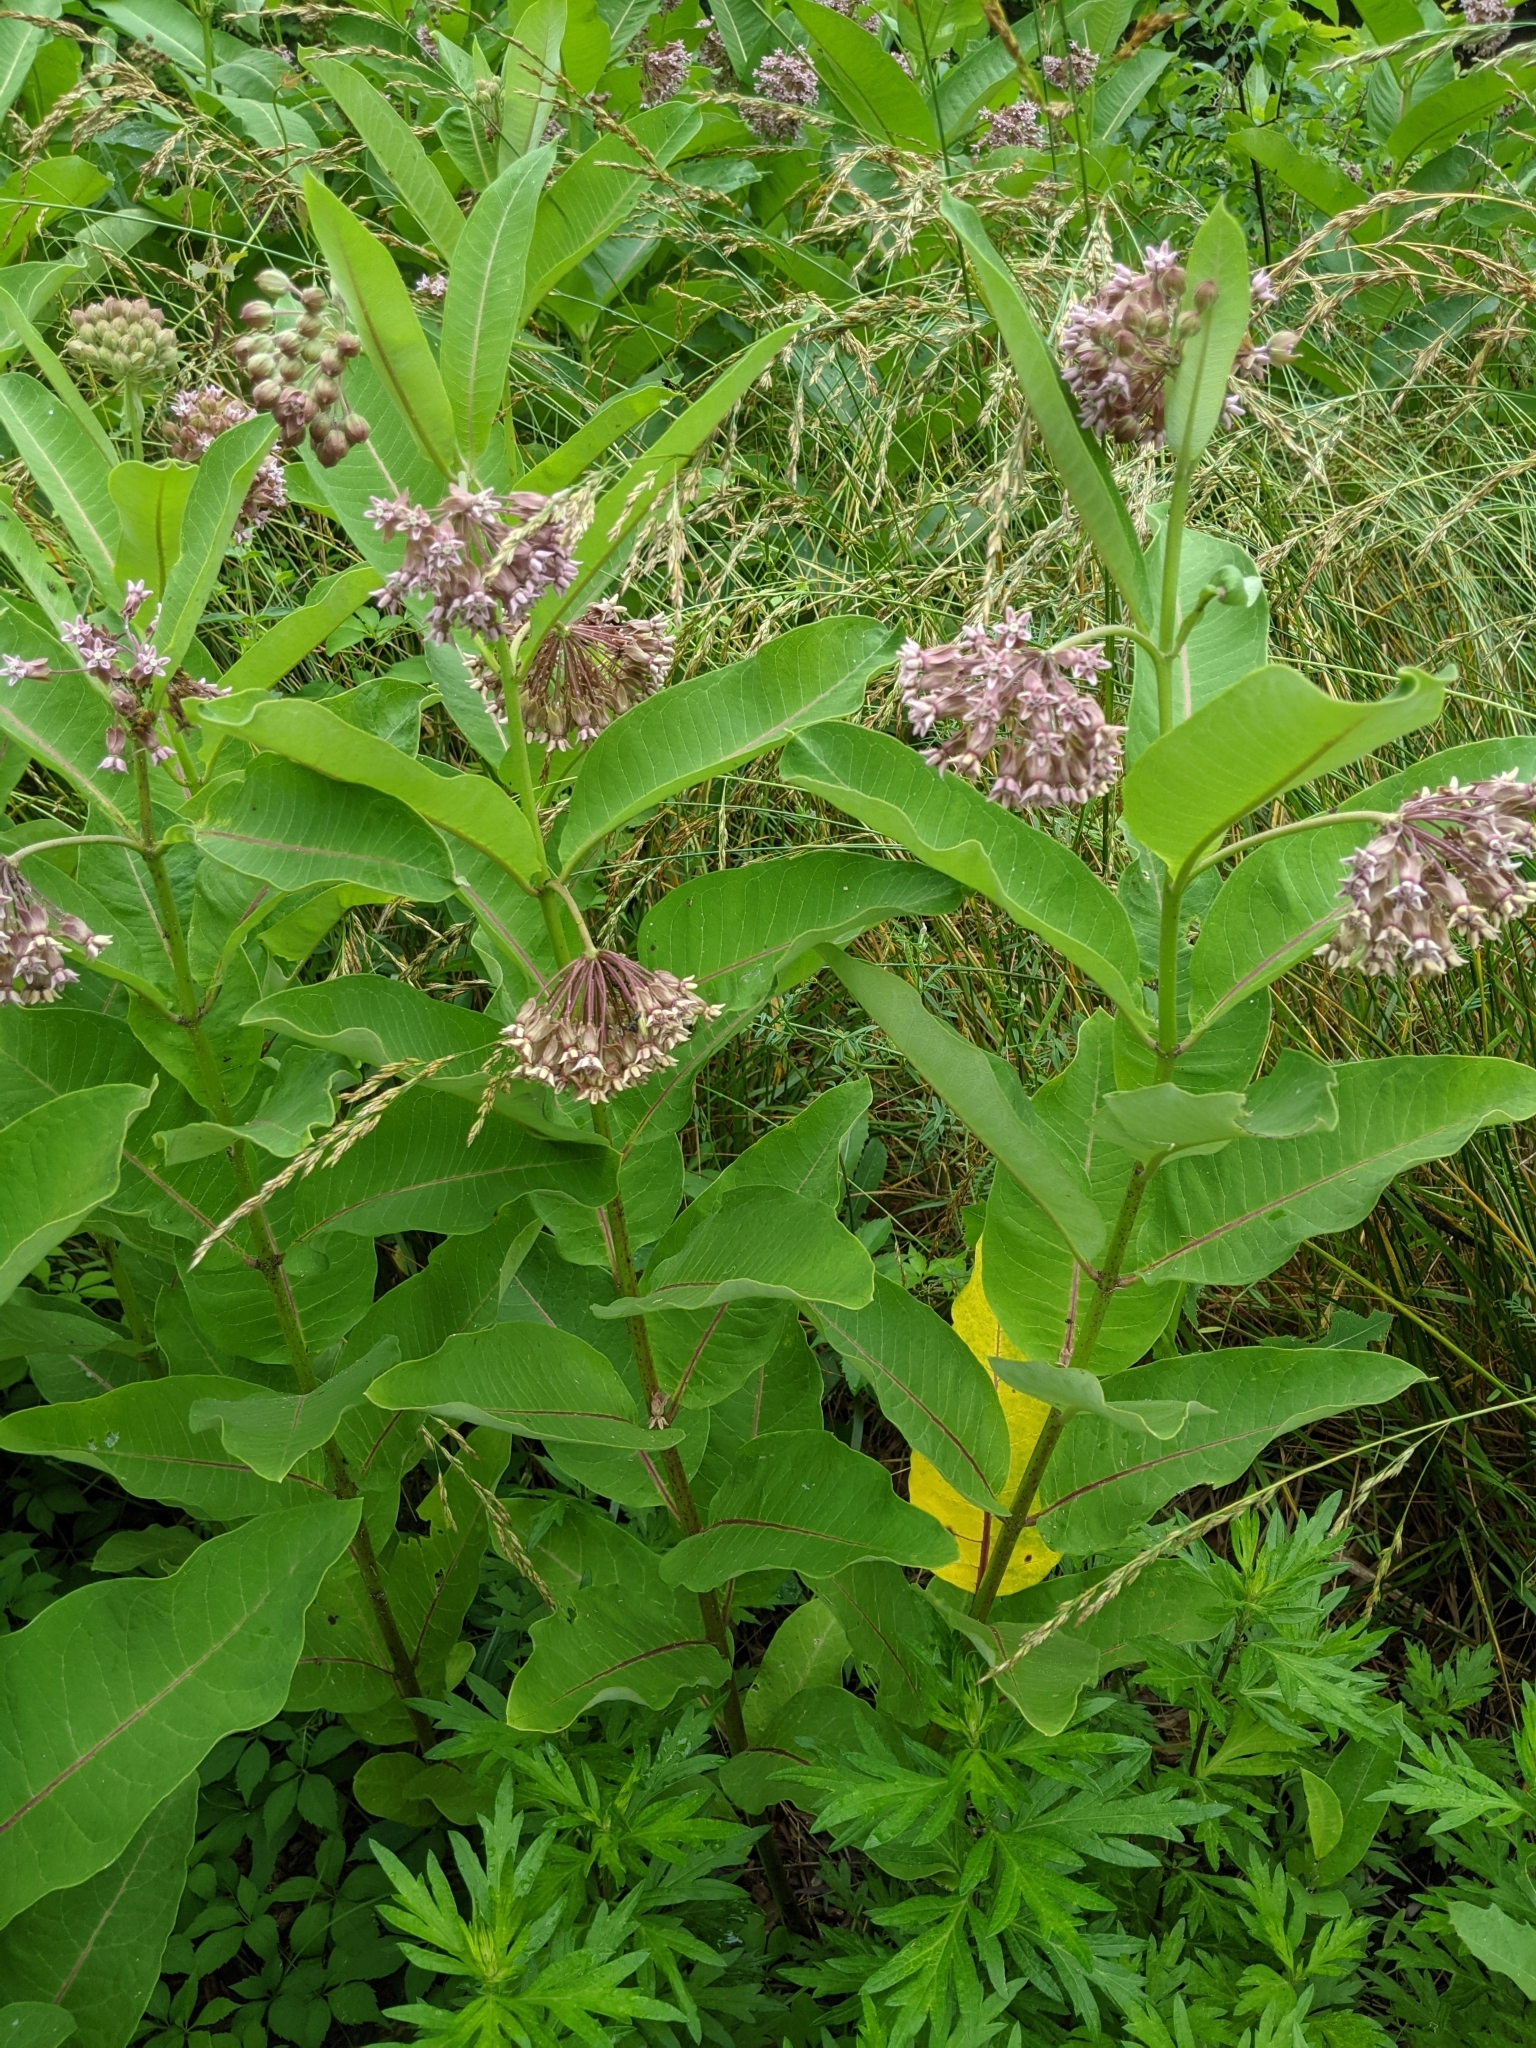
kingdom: Plantae
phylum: Tracheophyta
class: Magnoliopsida
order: Gentianales
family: Apocynaceae
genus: Asclepias
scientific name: Asclepias syriaca
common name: Common milkweed
